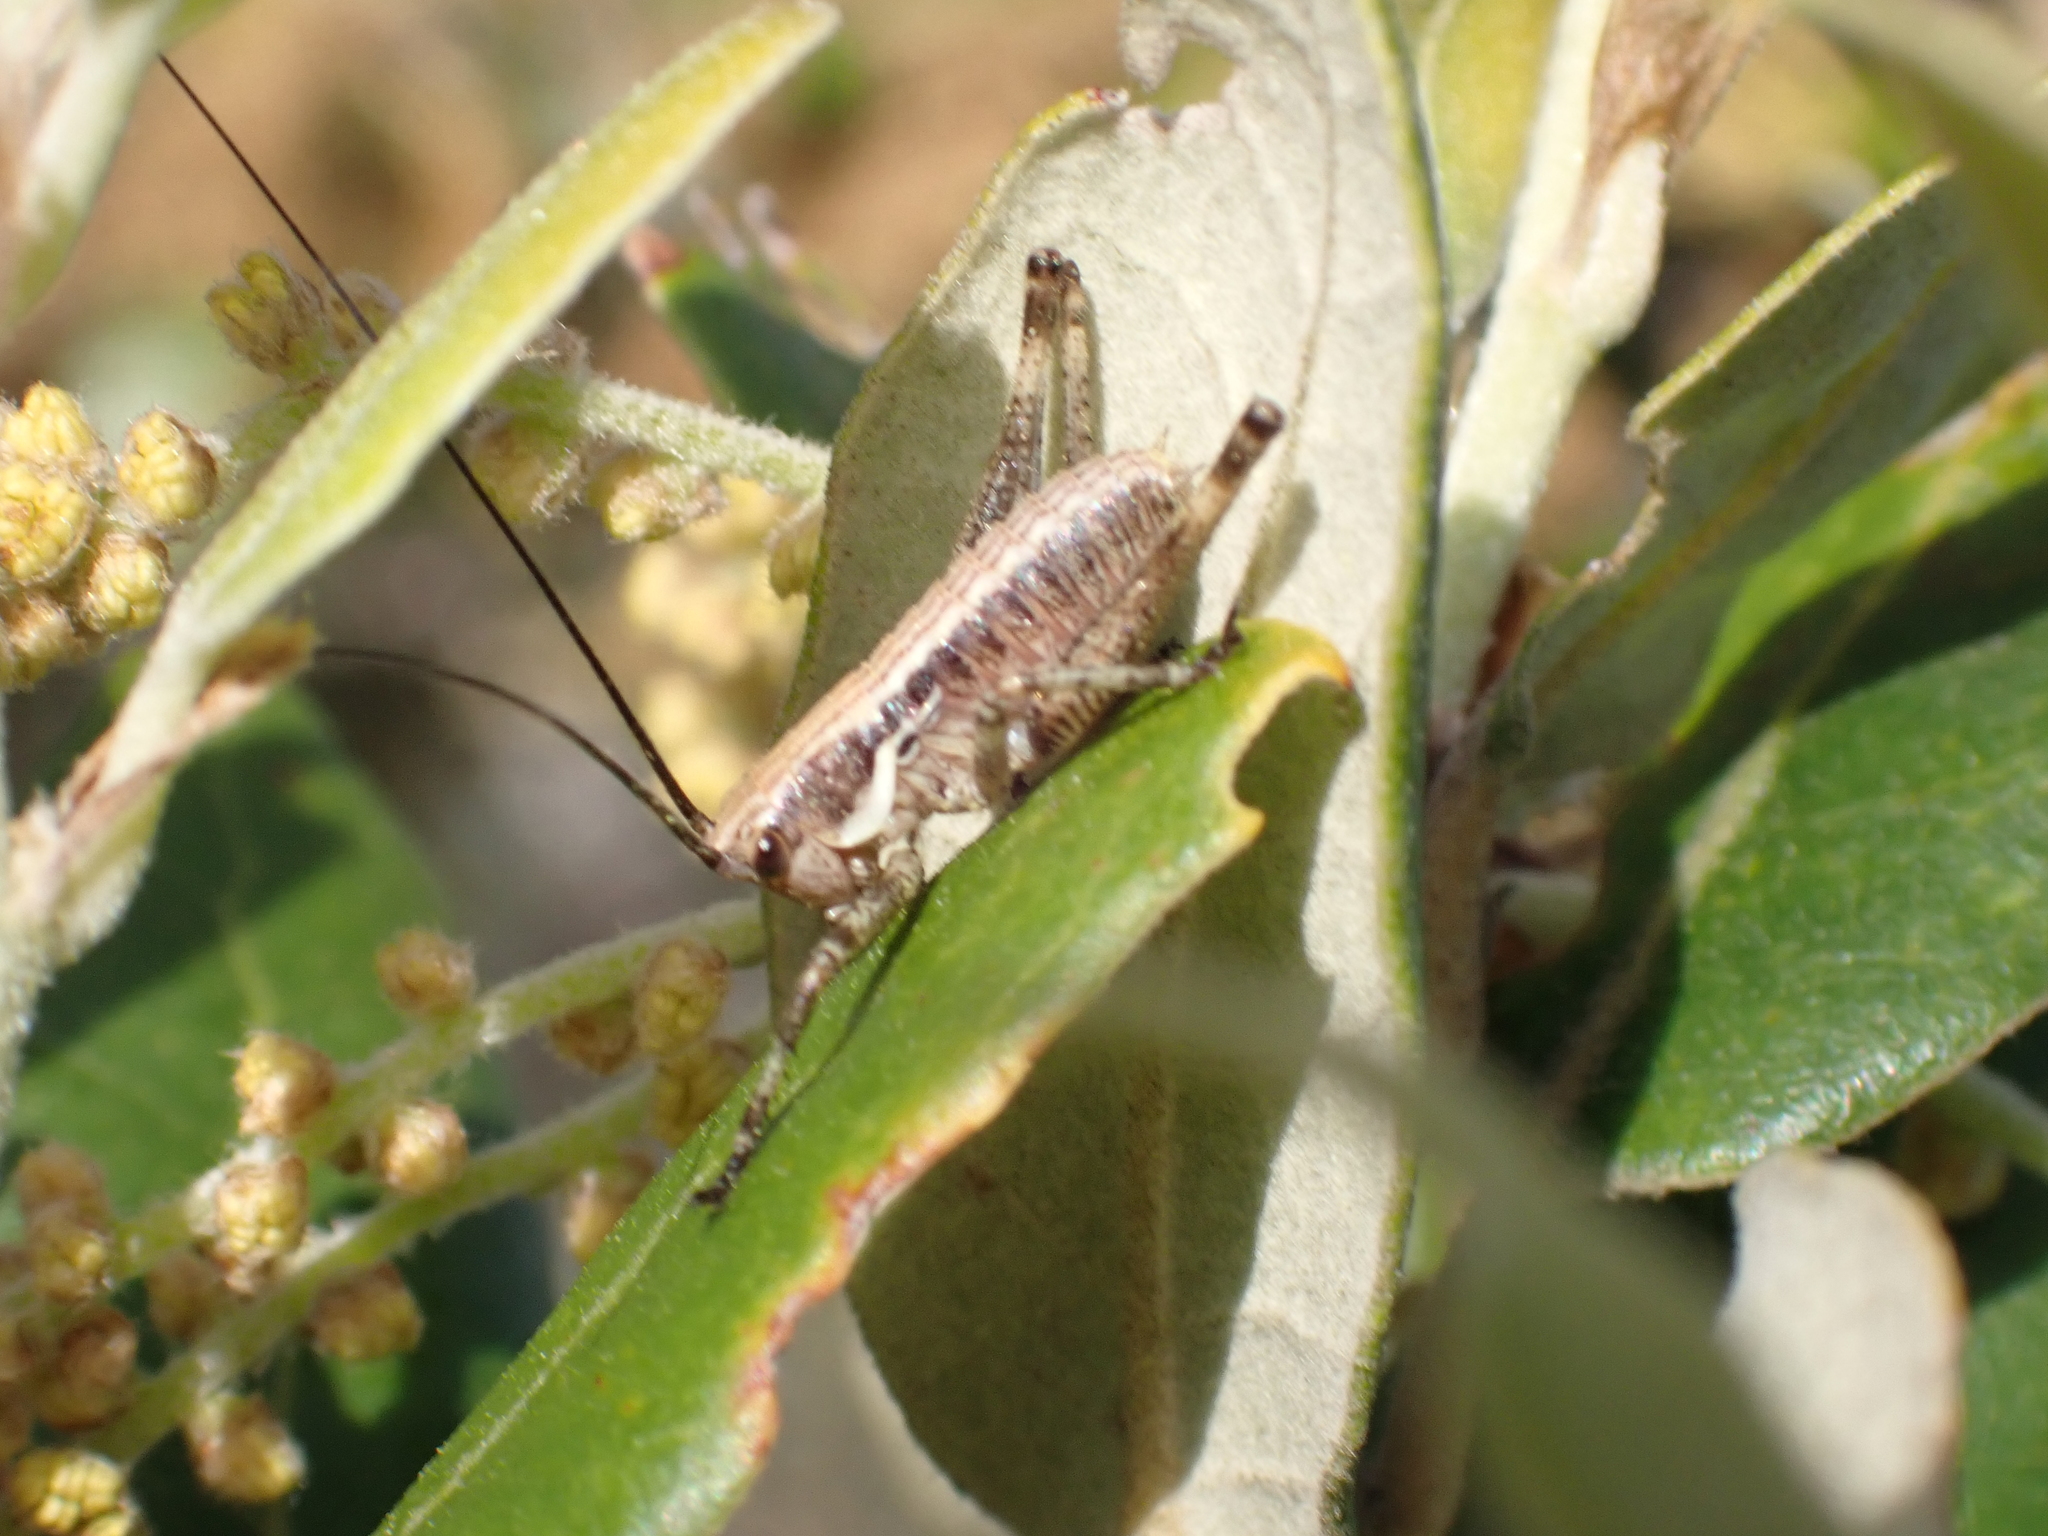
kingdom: Animalia
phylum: Arthropoda
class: Insecta
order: Orthoptera
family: Tettigoniidae
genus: Antaxius
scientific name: Antaxius pedestris
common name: Common mountain bush-cricket
